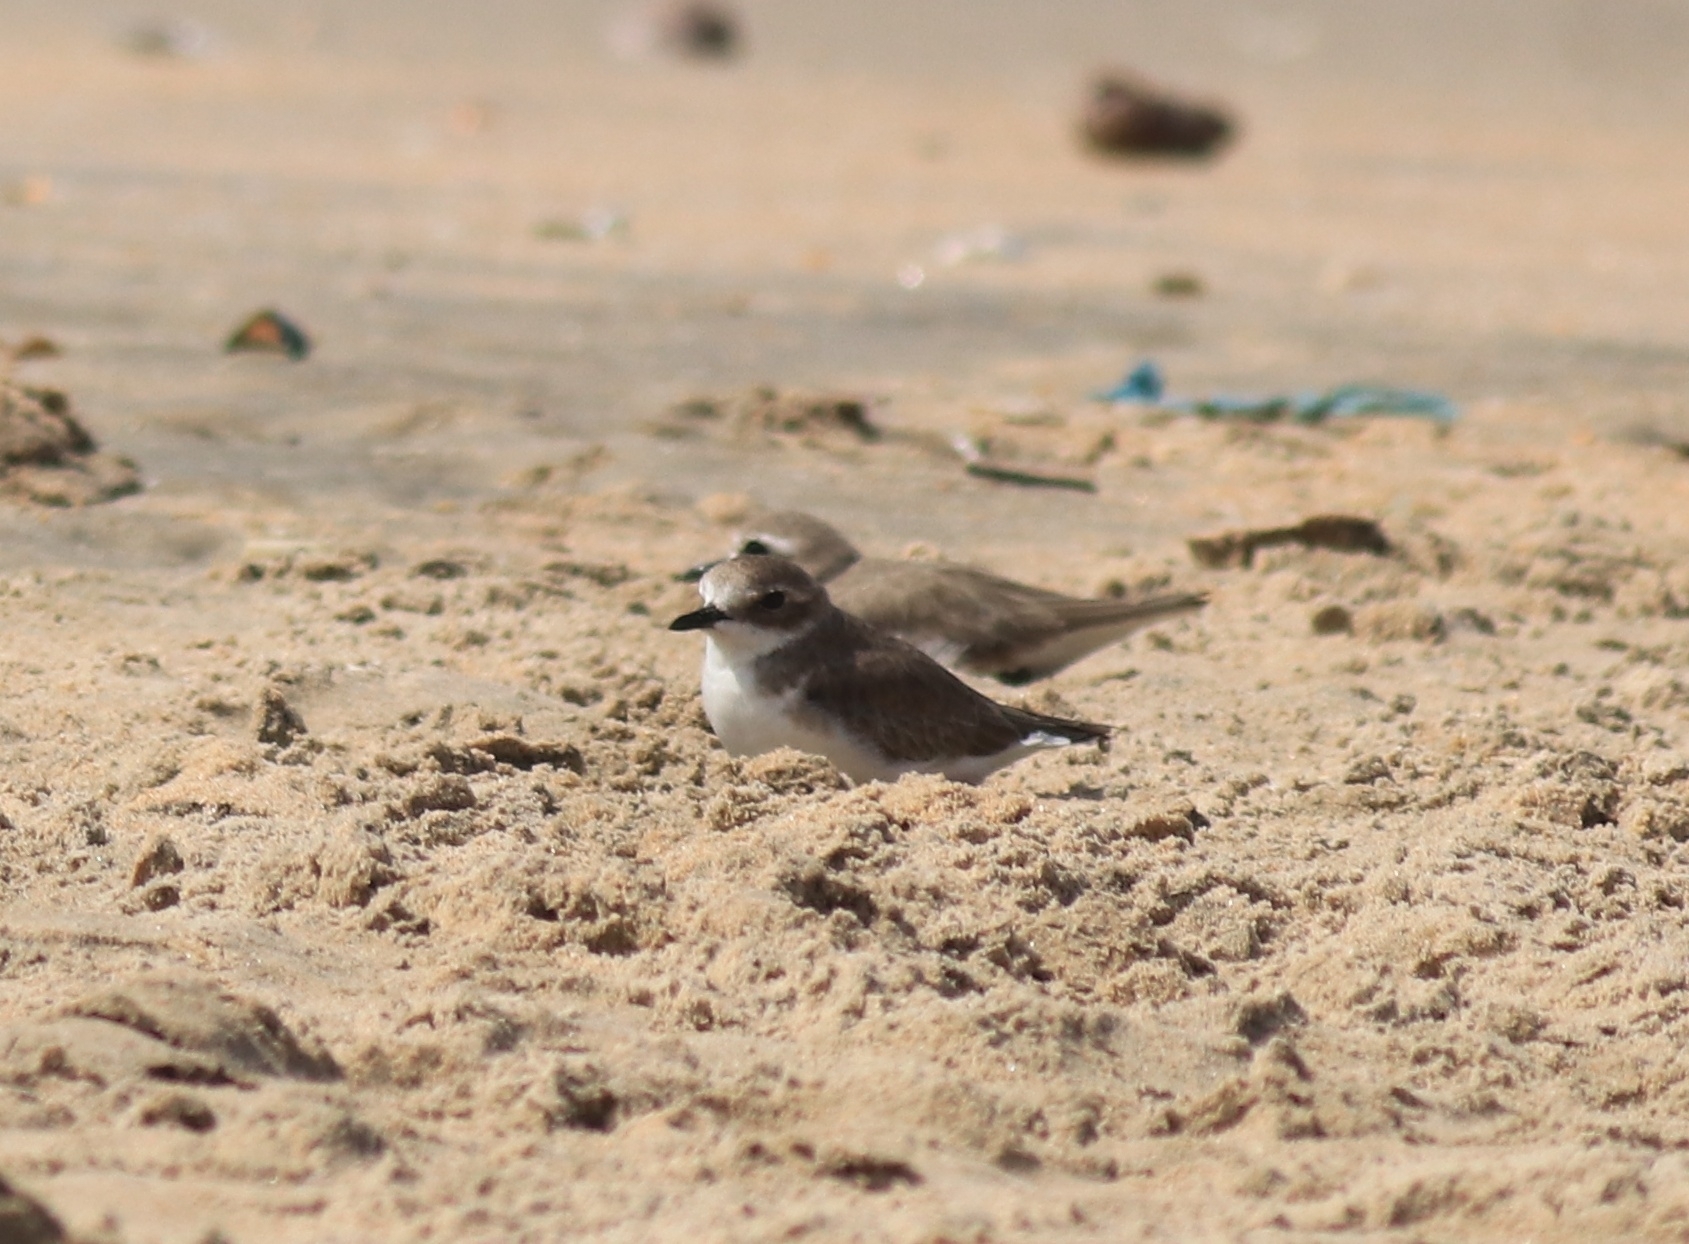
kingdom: Animalia
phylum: Chordata
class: Aves
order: Charadriiformes
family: Charadriidae
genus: Anarhynchus
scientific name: Anarhynchus
